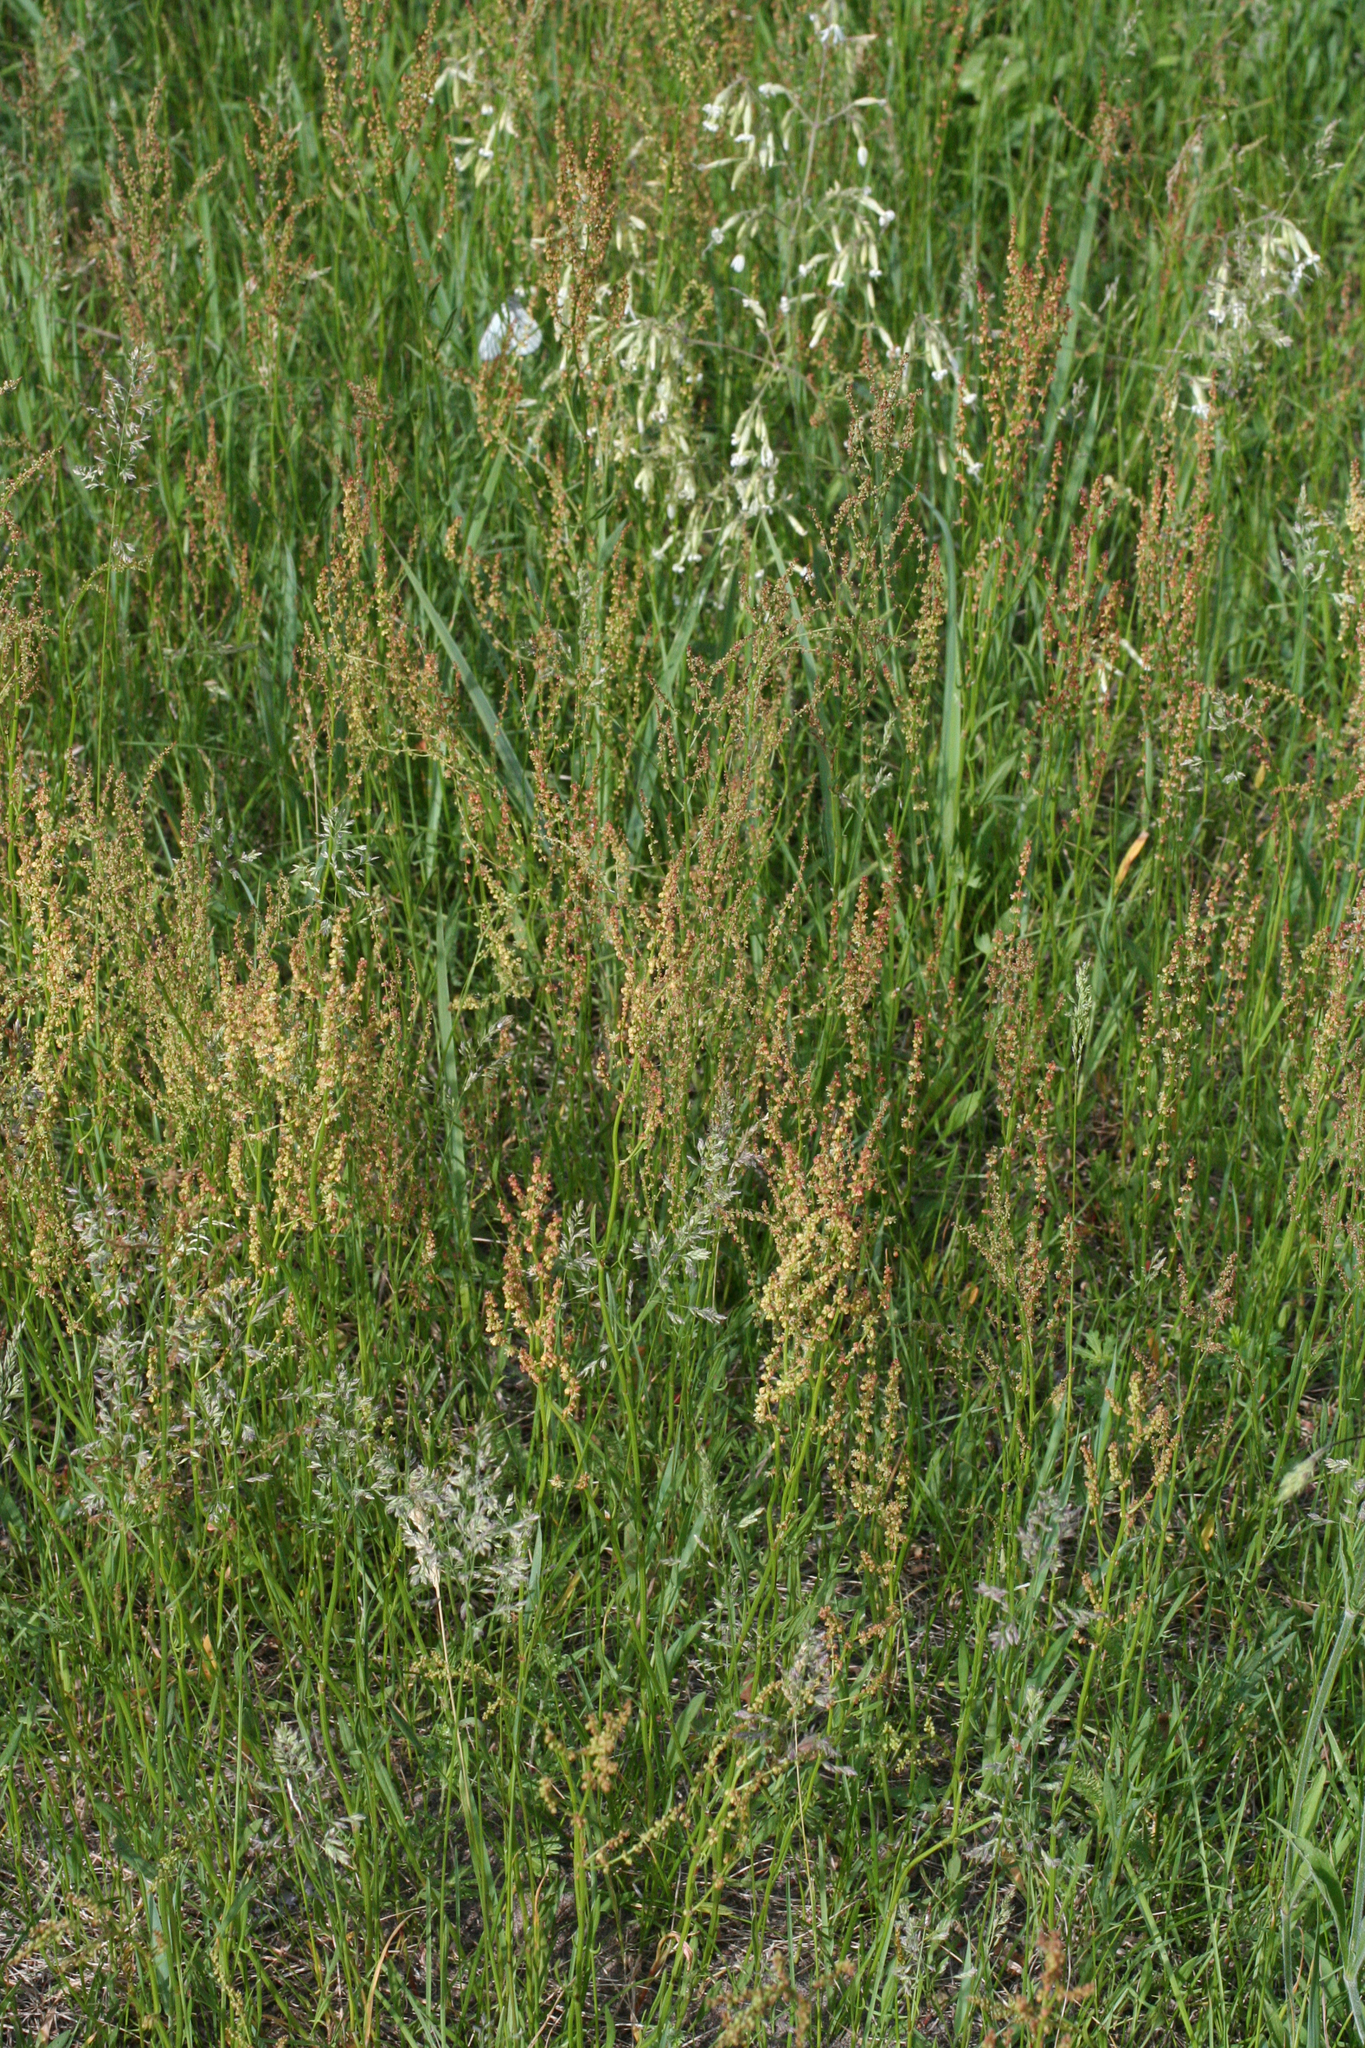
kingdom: Plantae
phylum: Tracheophyta
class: Magnoliopsida
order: Caryophyllales
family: Polygonaceae
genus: Rumex
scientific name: Rumex acetosella
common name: Common sheep sorrel
